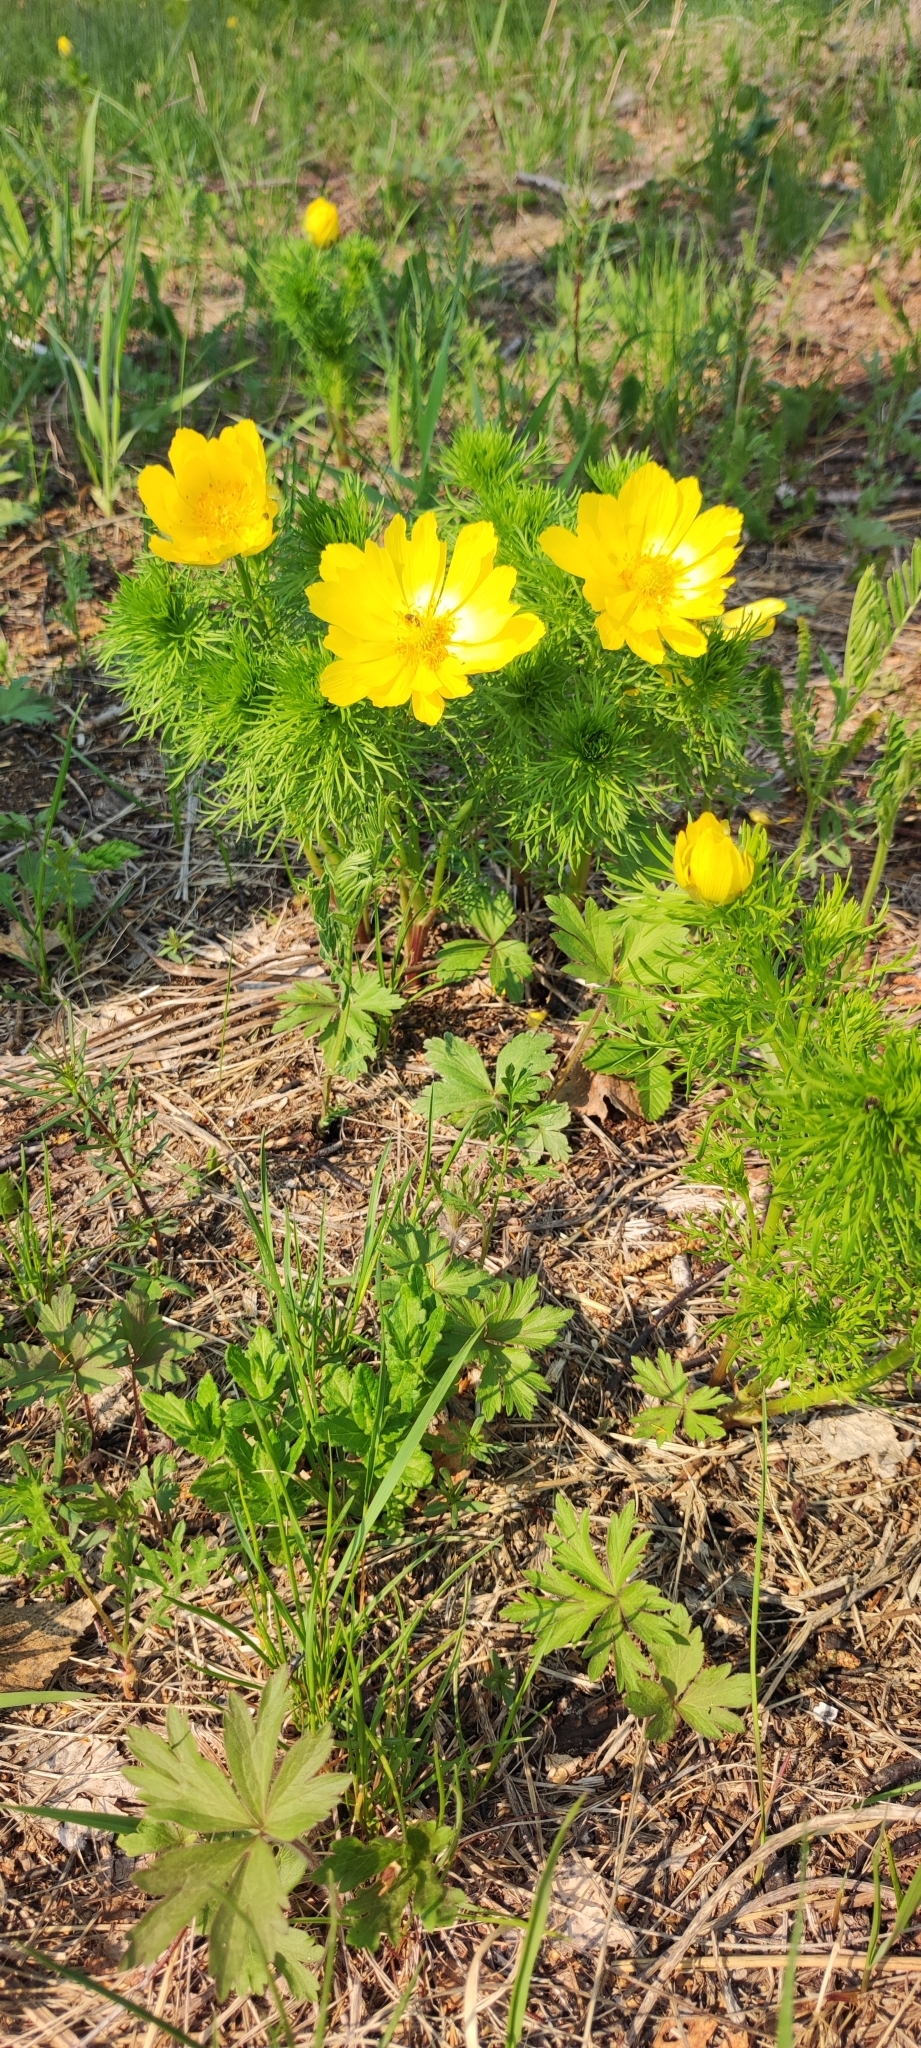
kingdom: Plantae
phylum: Tracheophyta
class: Magnoliopsida
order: Ranunculales
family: Ranunculaceae
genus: Adonis
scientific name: Adonis vernalis
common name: Yellow pheasants-eye
